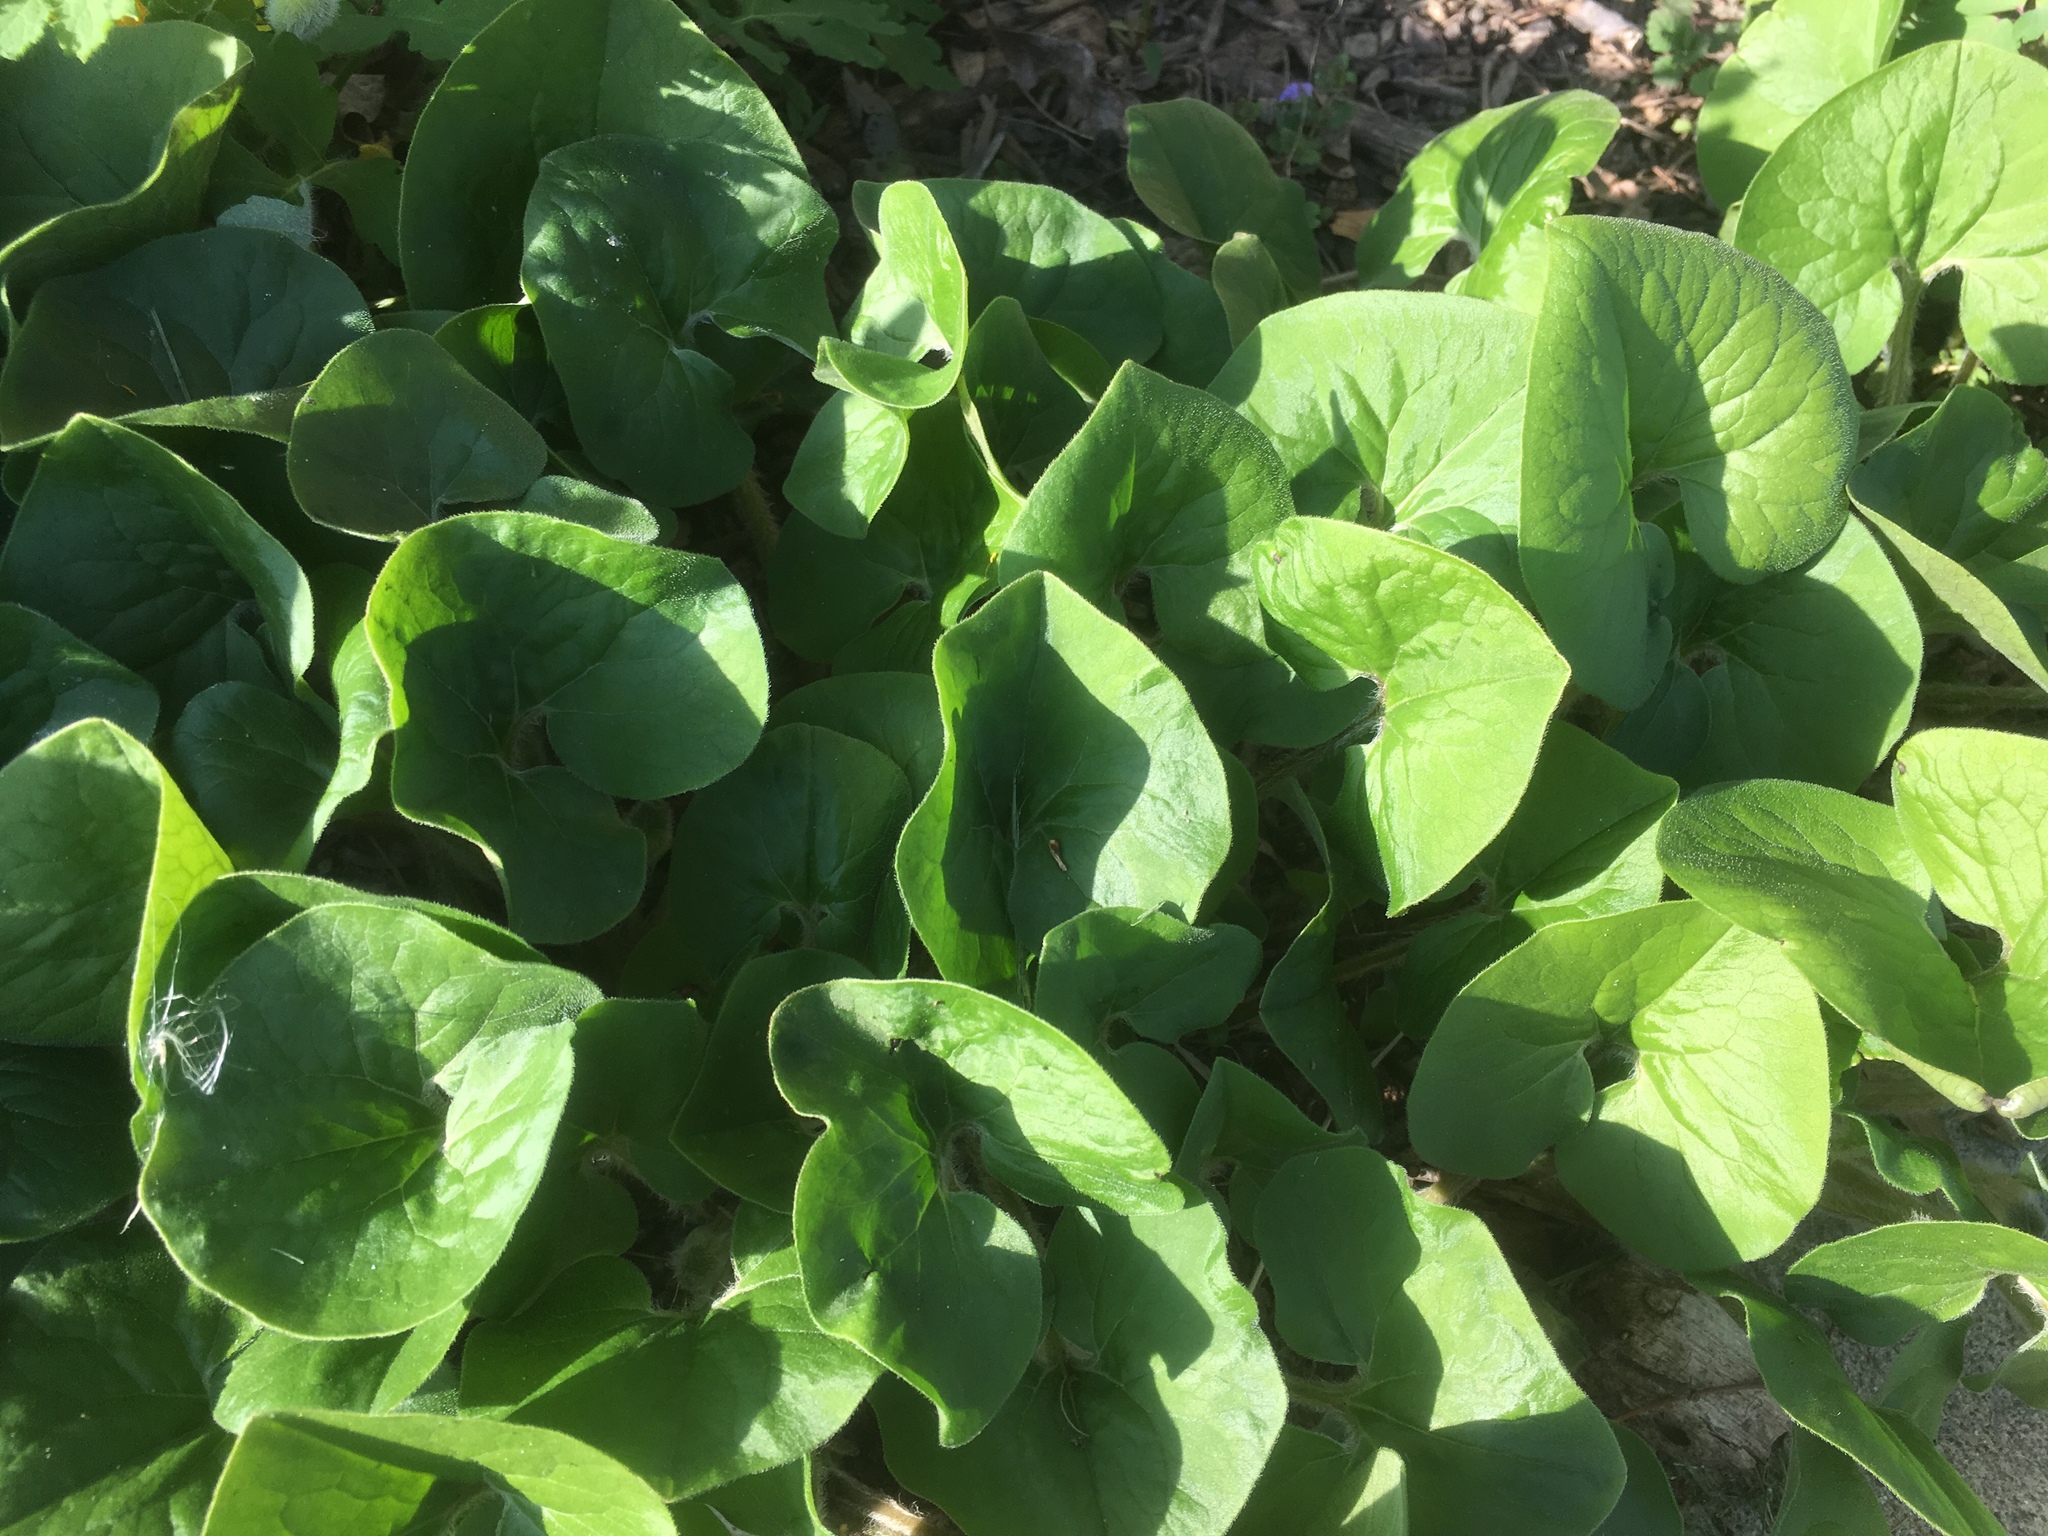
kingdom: Plantae
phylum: Tracheophyta
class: Magnoliopsida
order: Piperales
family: Aristolochiaceae
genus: Asarum
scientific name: Asarum canadense
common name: Wild ginger
